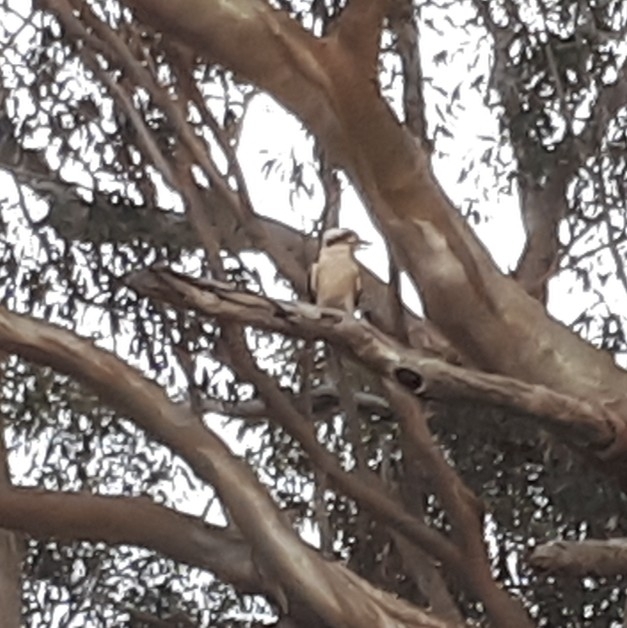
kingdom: Animalia
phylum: Chordata
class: Aves
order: Coraciiformes
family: Alcedinidae
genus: Dacelo
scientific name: Dacelo novaeguineae
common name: Laughing kookaburra
